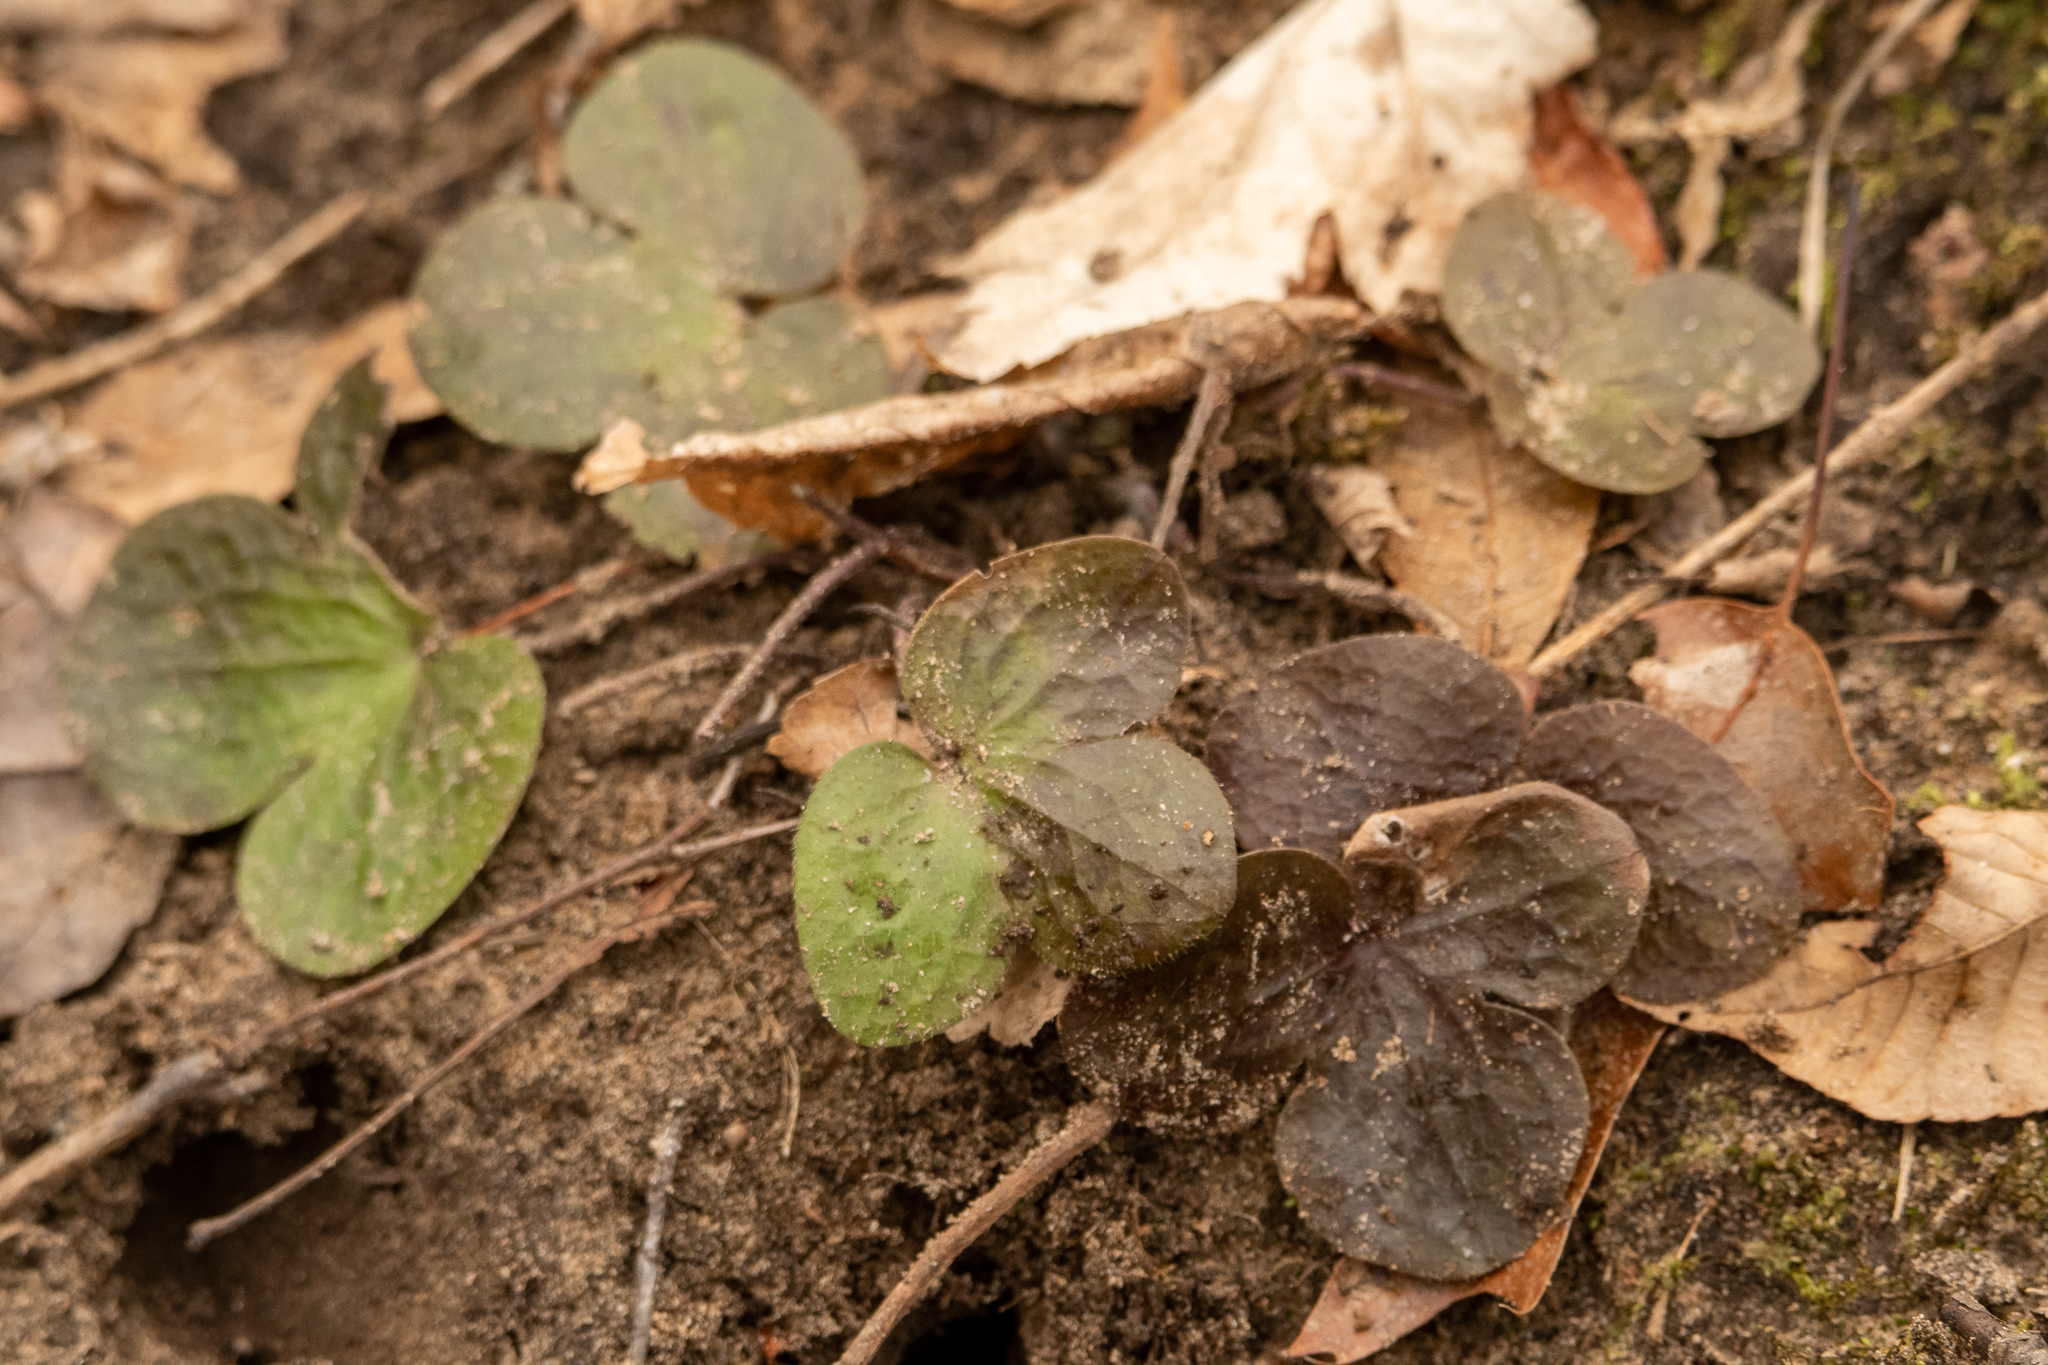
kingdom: Plantae
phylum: Tracheophyta
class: Magnoliopsida
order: Ranunculales
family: Ranunculaceae
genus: Hepatica
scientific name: Hepatica americana
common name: American hepatica
